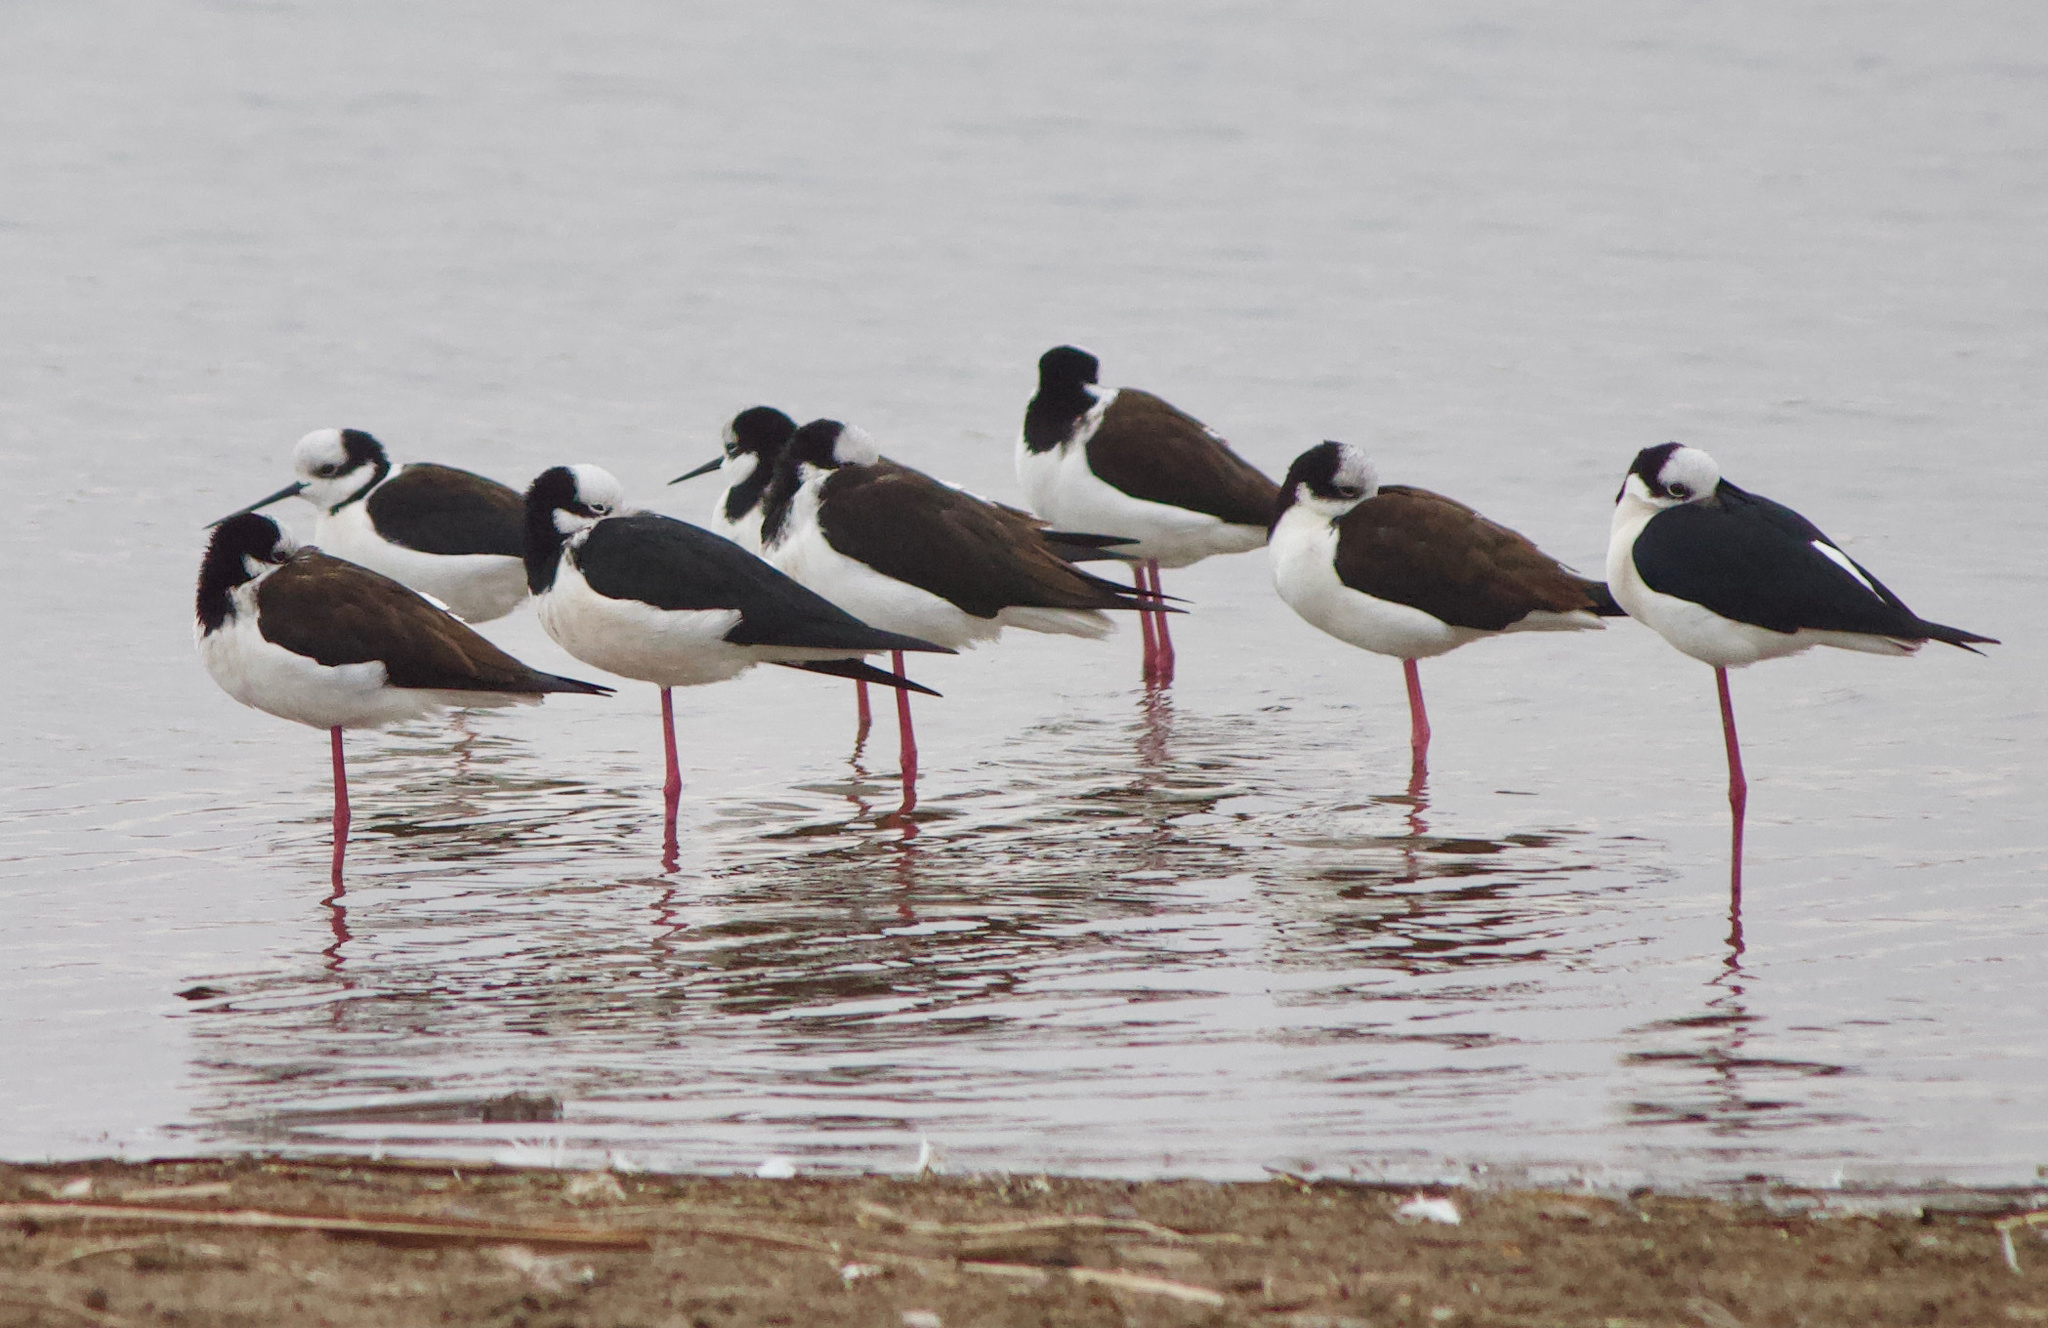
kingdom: Animalia
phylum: Chordata
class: Aves
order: Charadriiformes
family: Recurvirostridae
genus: Himantopus
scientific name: Himantopus mexicanus
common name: Black-necked stilt
